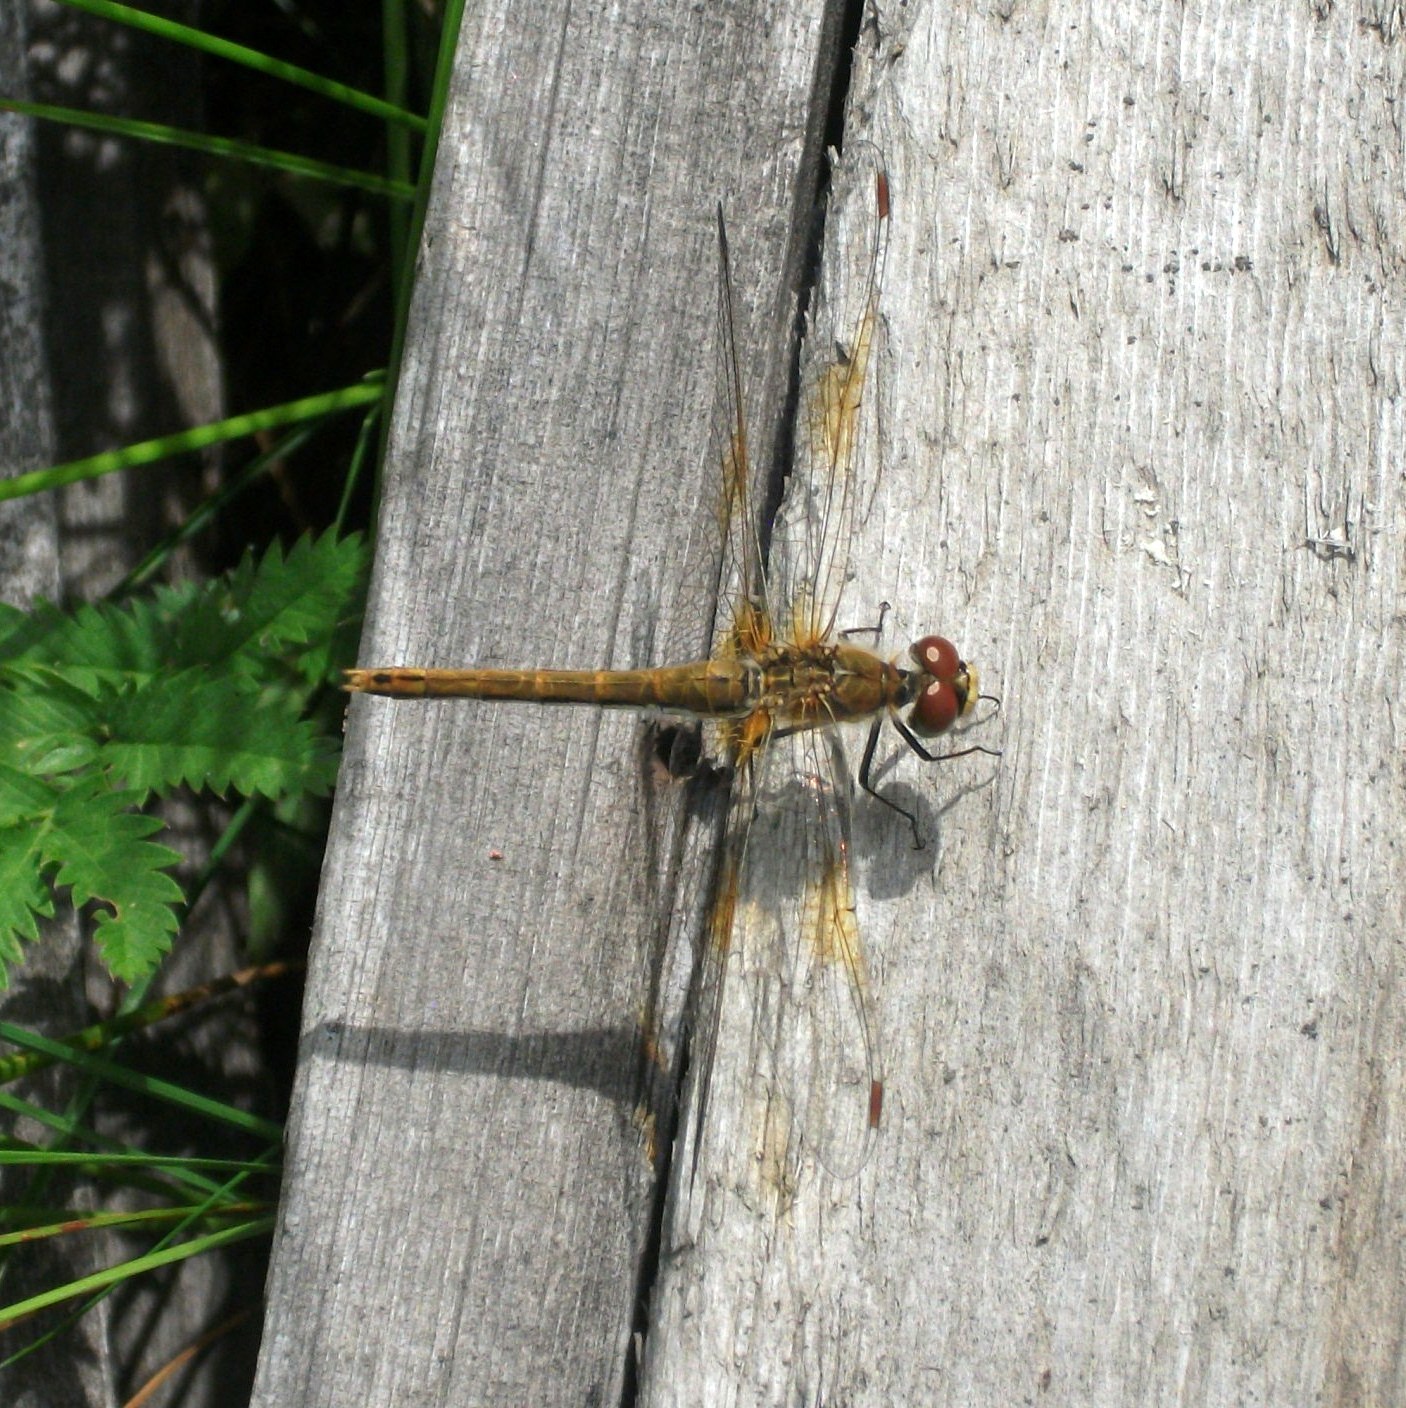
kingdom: Animalia
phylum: Arthropoda
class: Insecta
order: Odonata
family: Libellulidae
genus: Sympetrum
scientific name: Sympetrum flaveolum
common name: Yellow-winged darter
